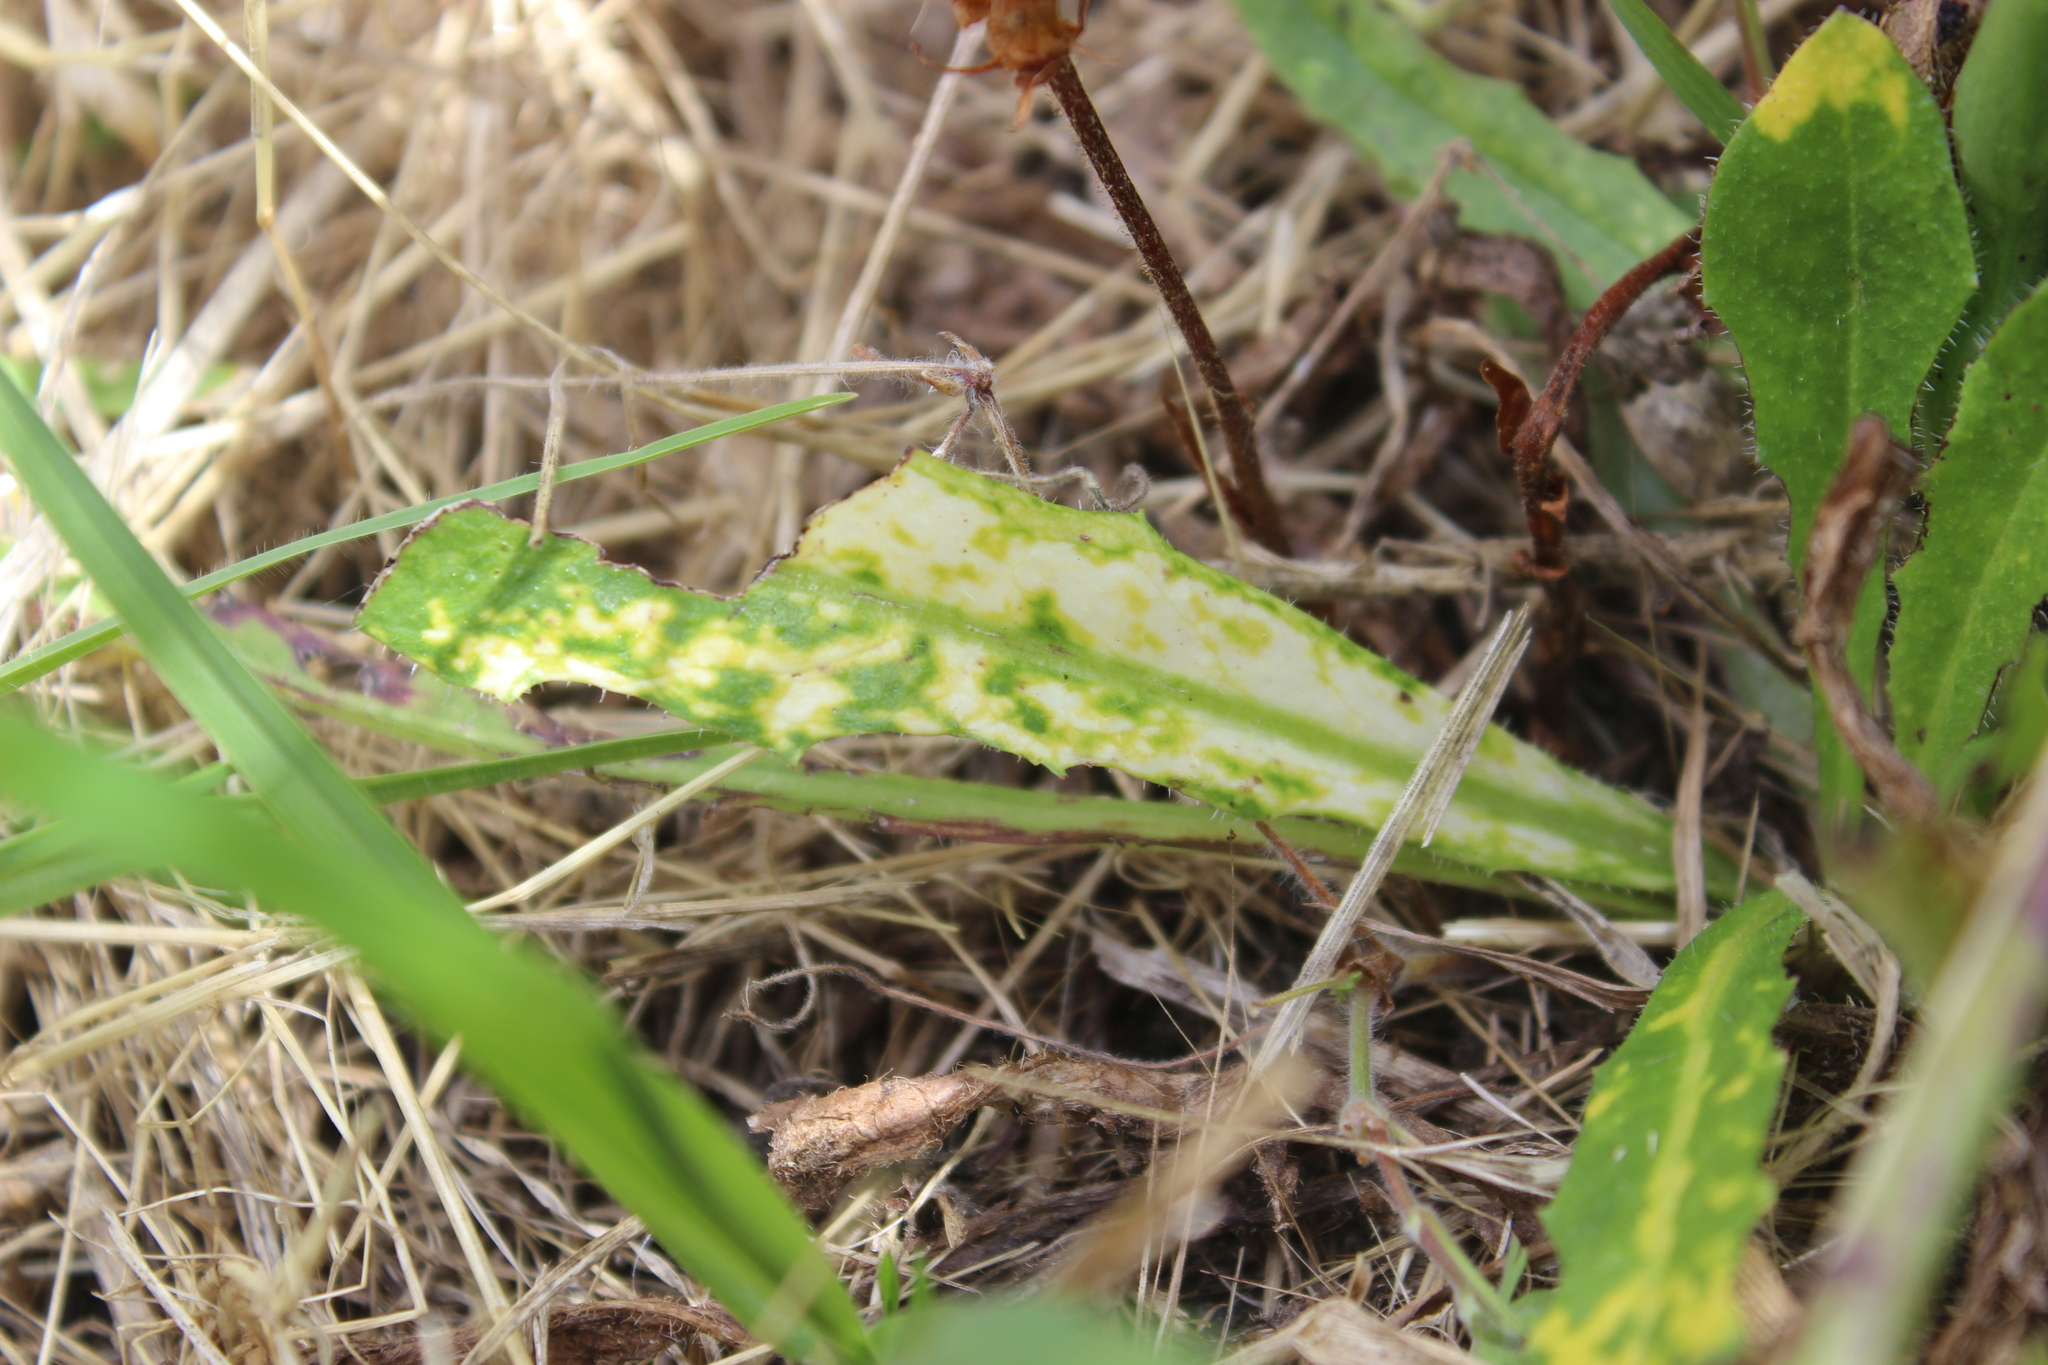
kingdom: Viruses
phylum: Kitrinoviricota
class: Alsuviricetes
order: Martellivirales
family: Virgaviridae
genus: Furovirus
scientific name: Furovirus
